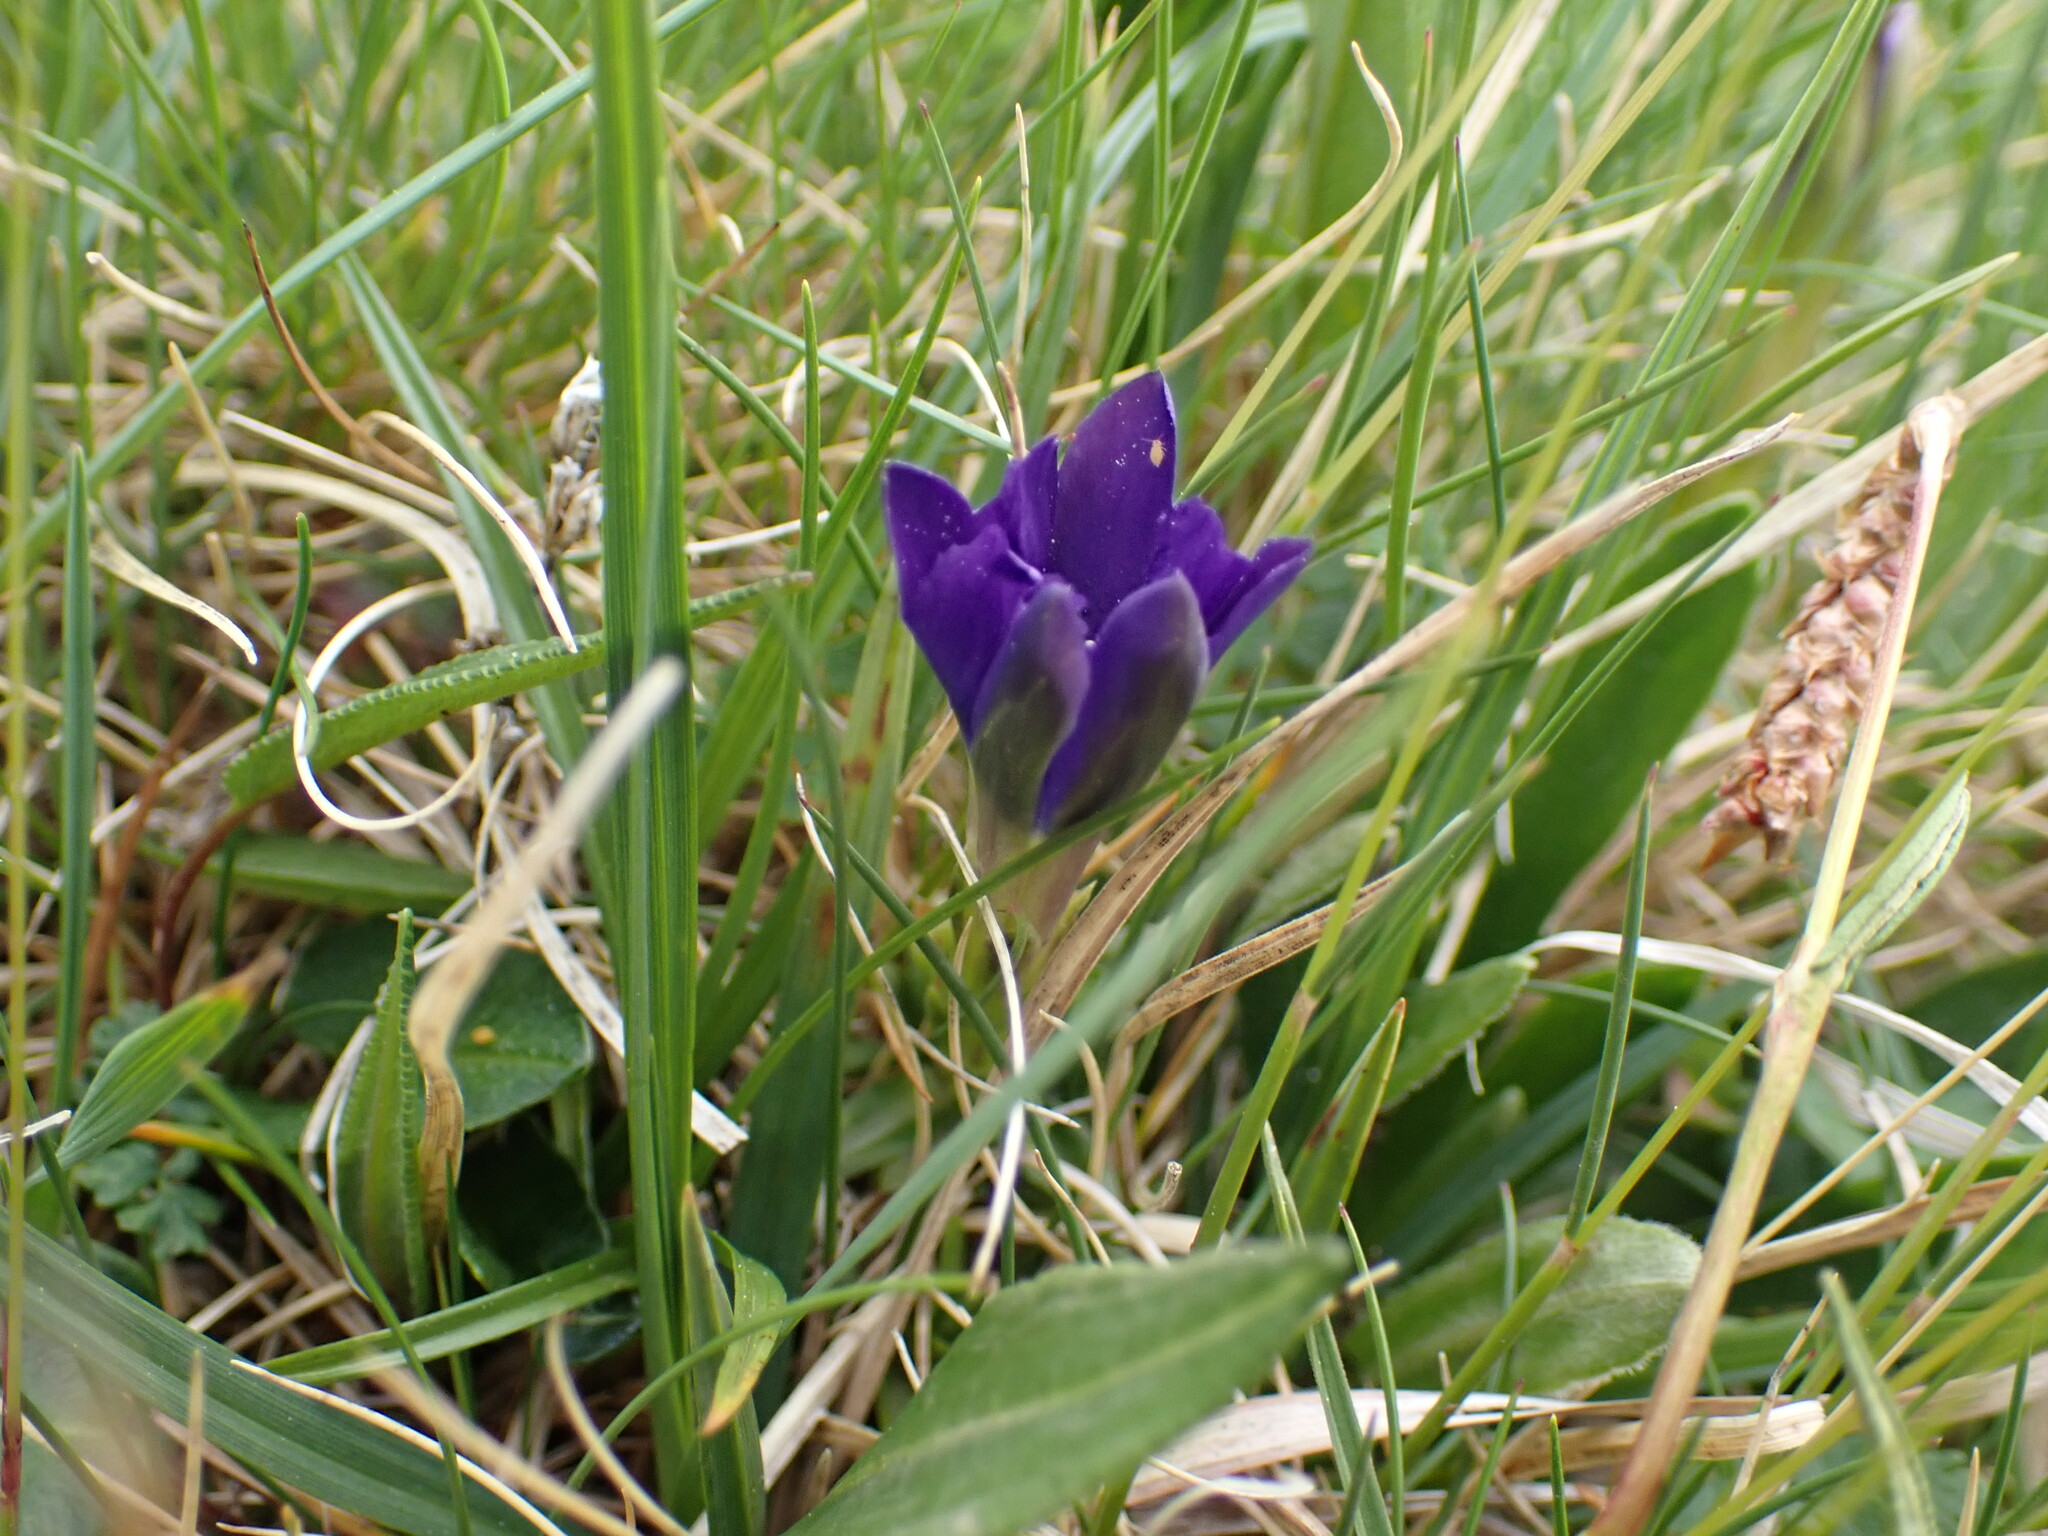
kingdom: Plantae
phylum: Tracheophyta
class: Magnoliopsida
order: Gentianales
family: Gentianaceae
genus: Gentiana
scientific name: Gentiana pyrenaica
